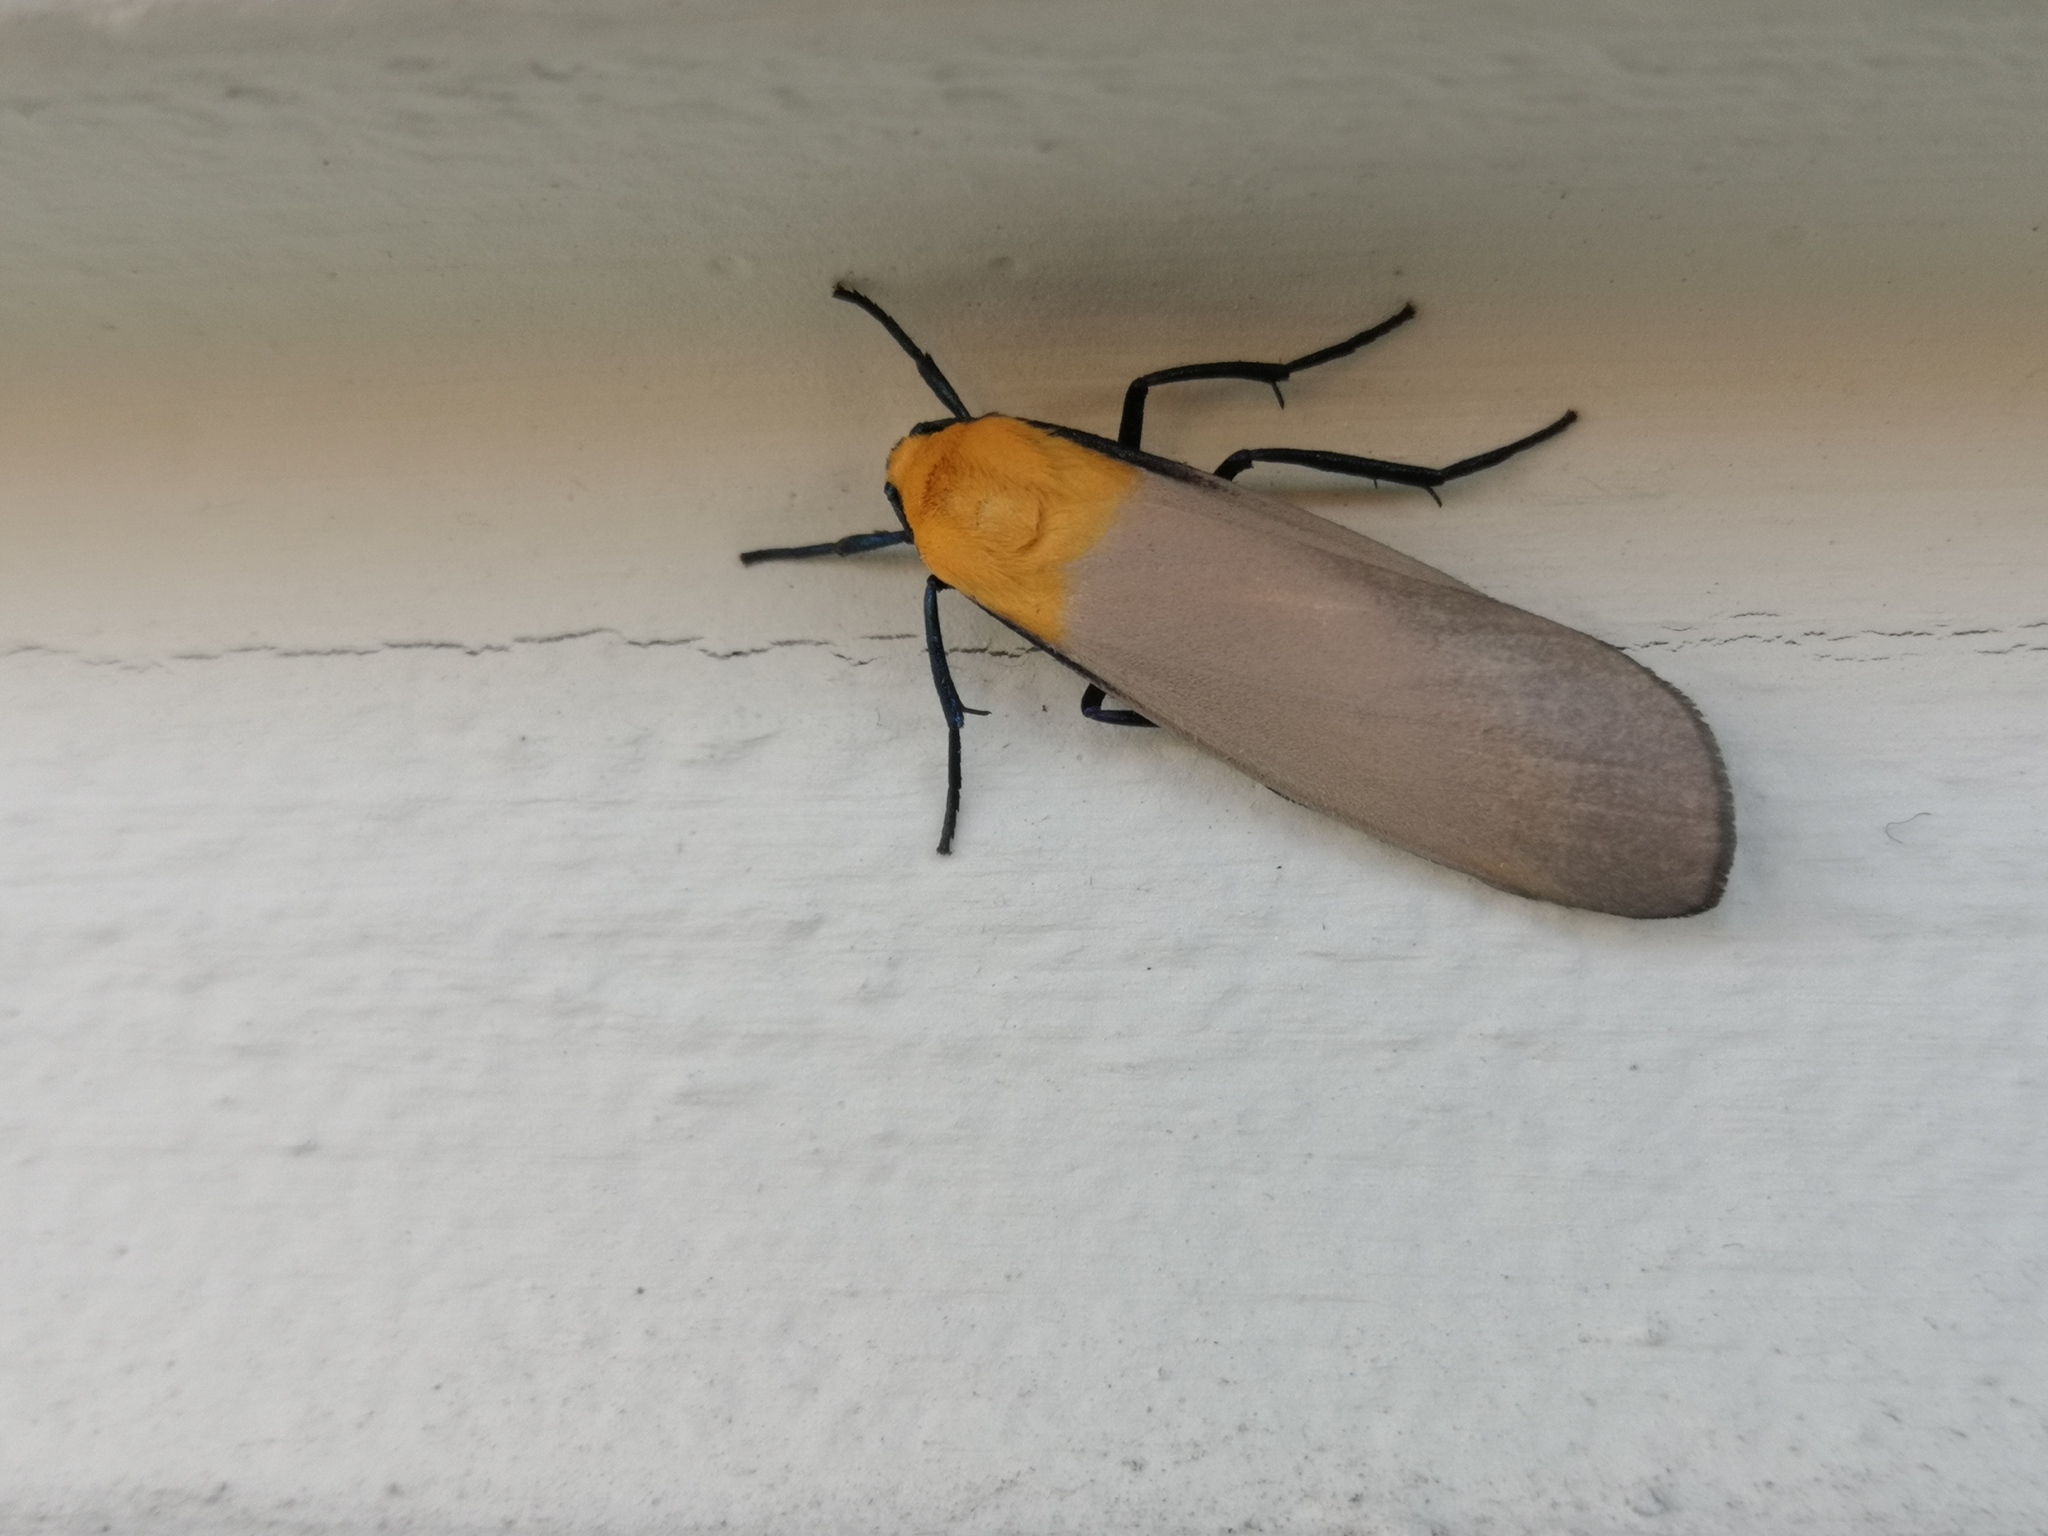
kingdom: Animalia
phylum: Arthropoda
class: Insecta
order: Lepidoptera
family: Erebidae
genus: Lithosia
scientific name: Lithosia quadra
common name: Four-spotted footman
